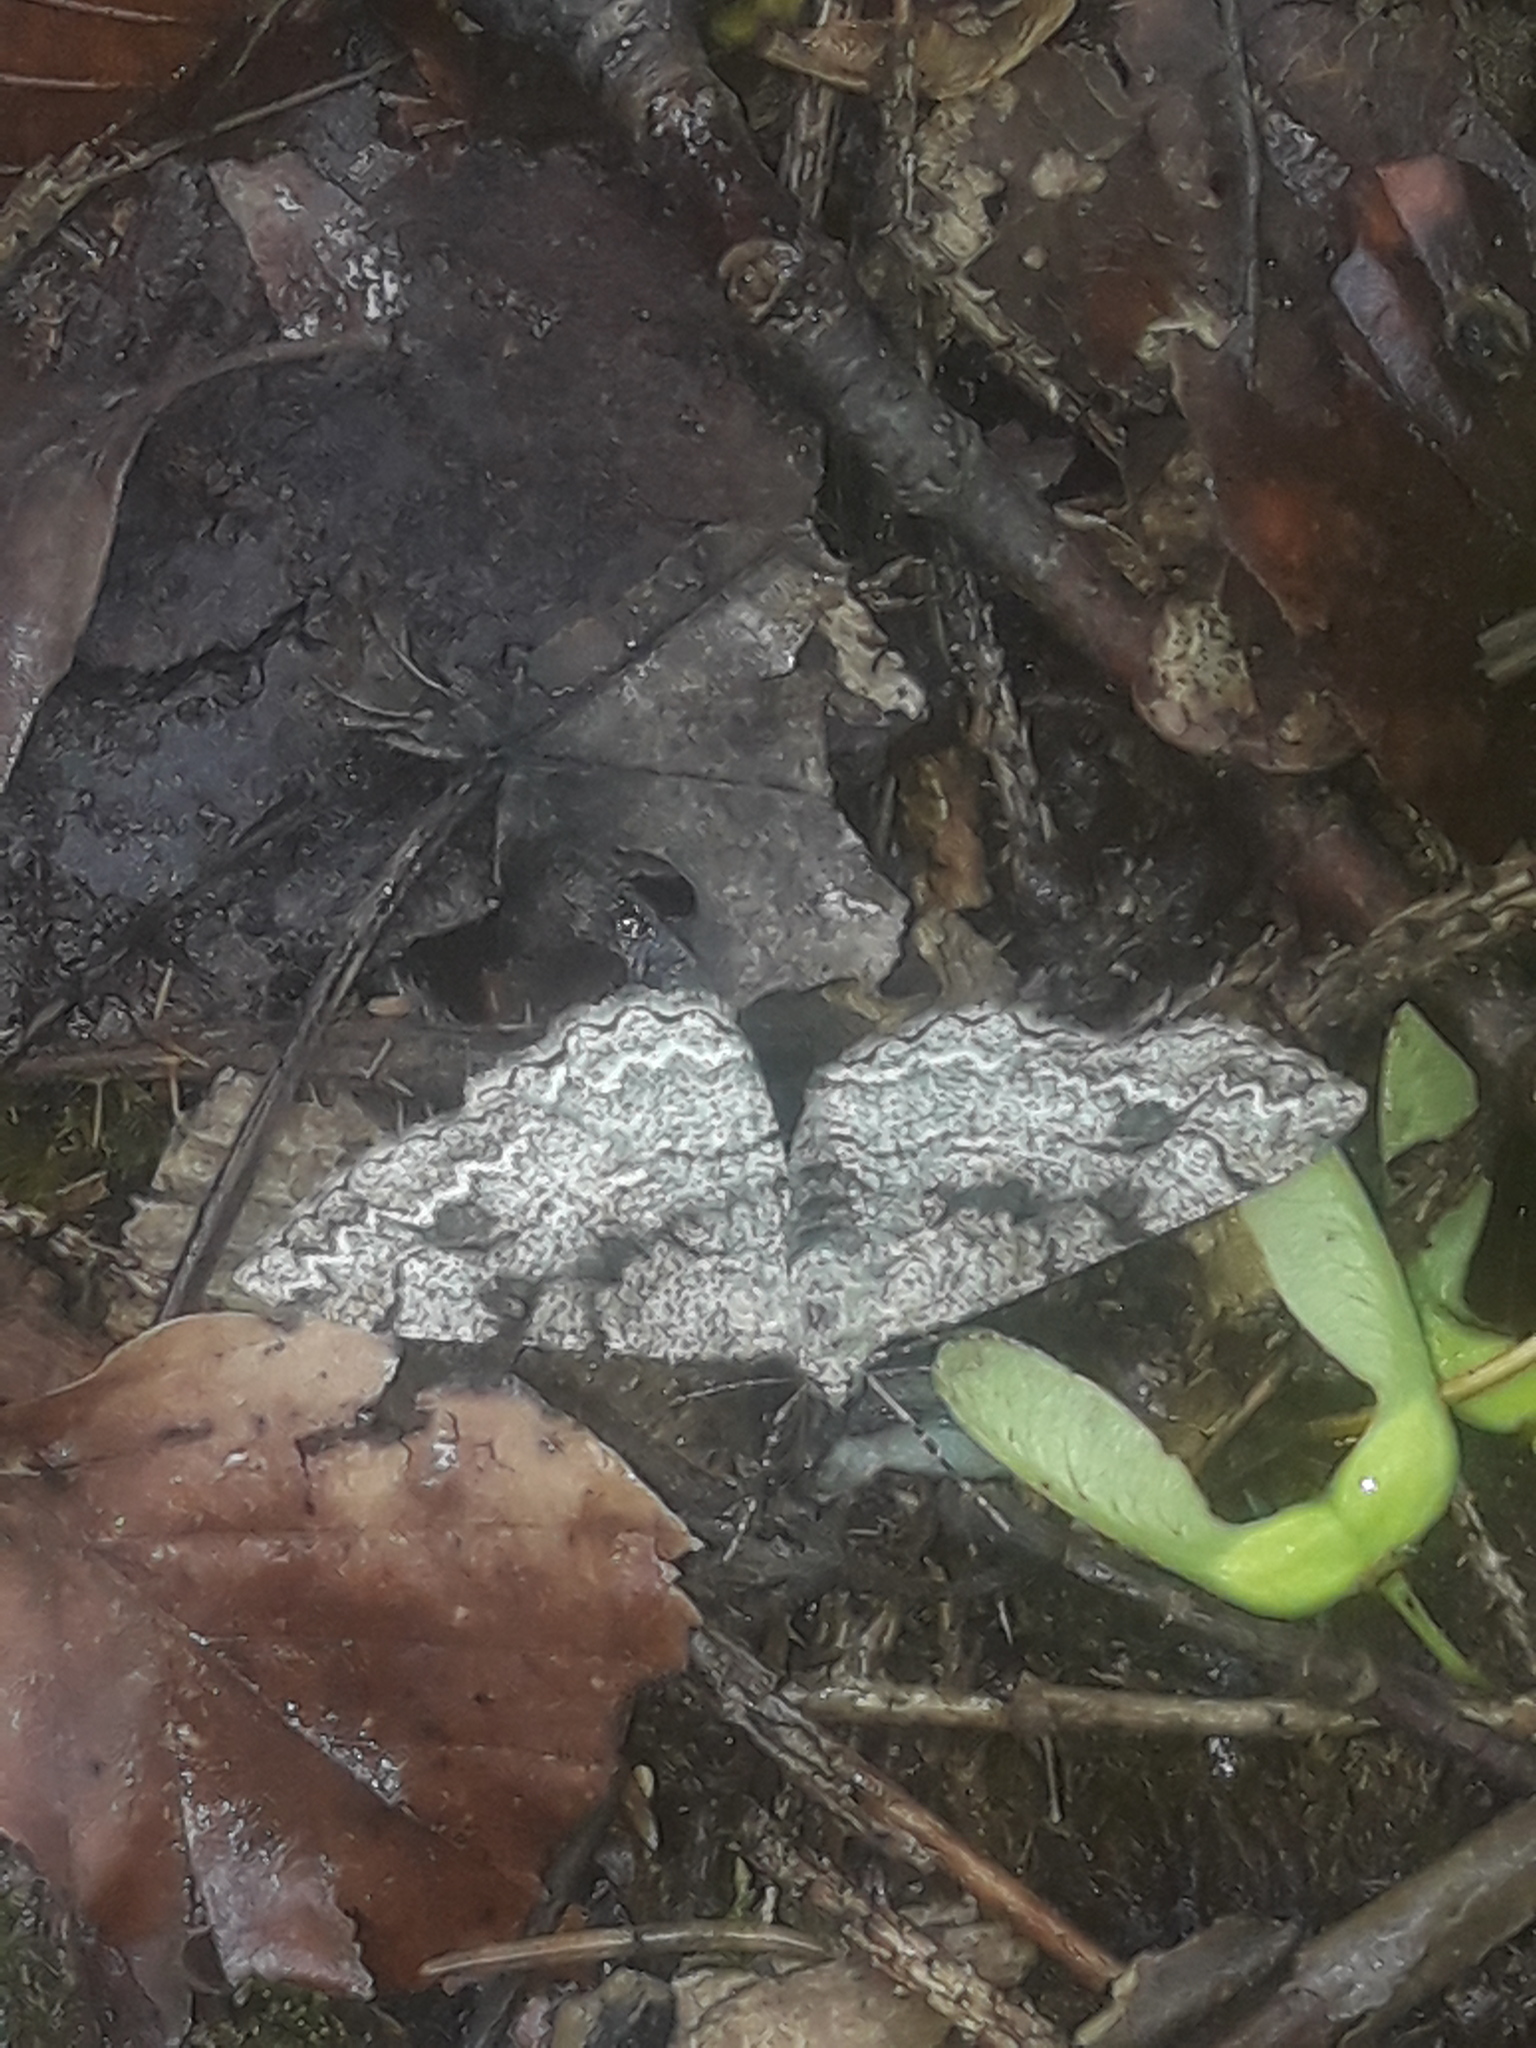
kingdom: Animalia
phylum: Arthropoda
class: Insecta
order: Lepidoptera
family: Geometridae
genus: Alcis
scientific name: Alcis repandata
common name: Mottled beauty
